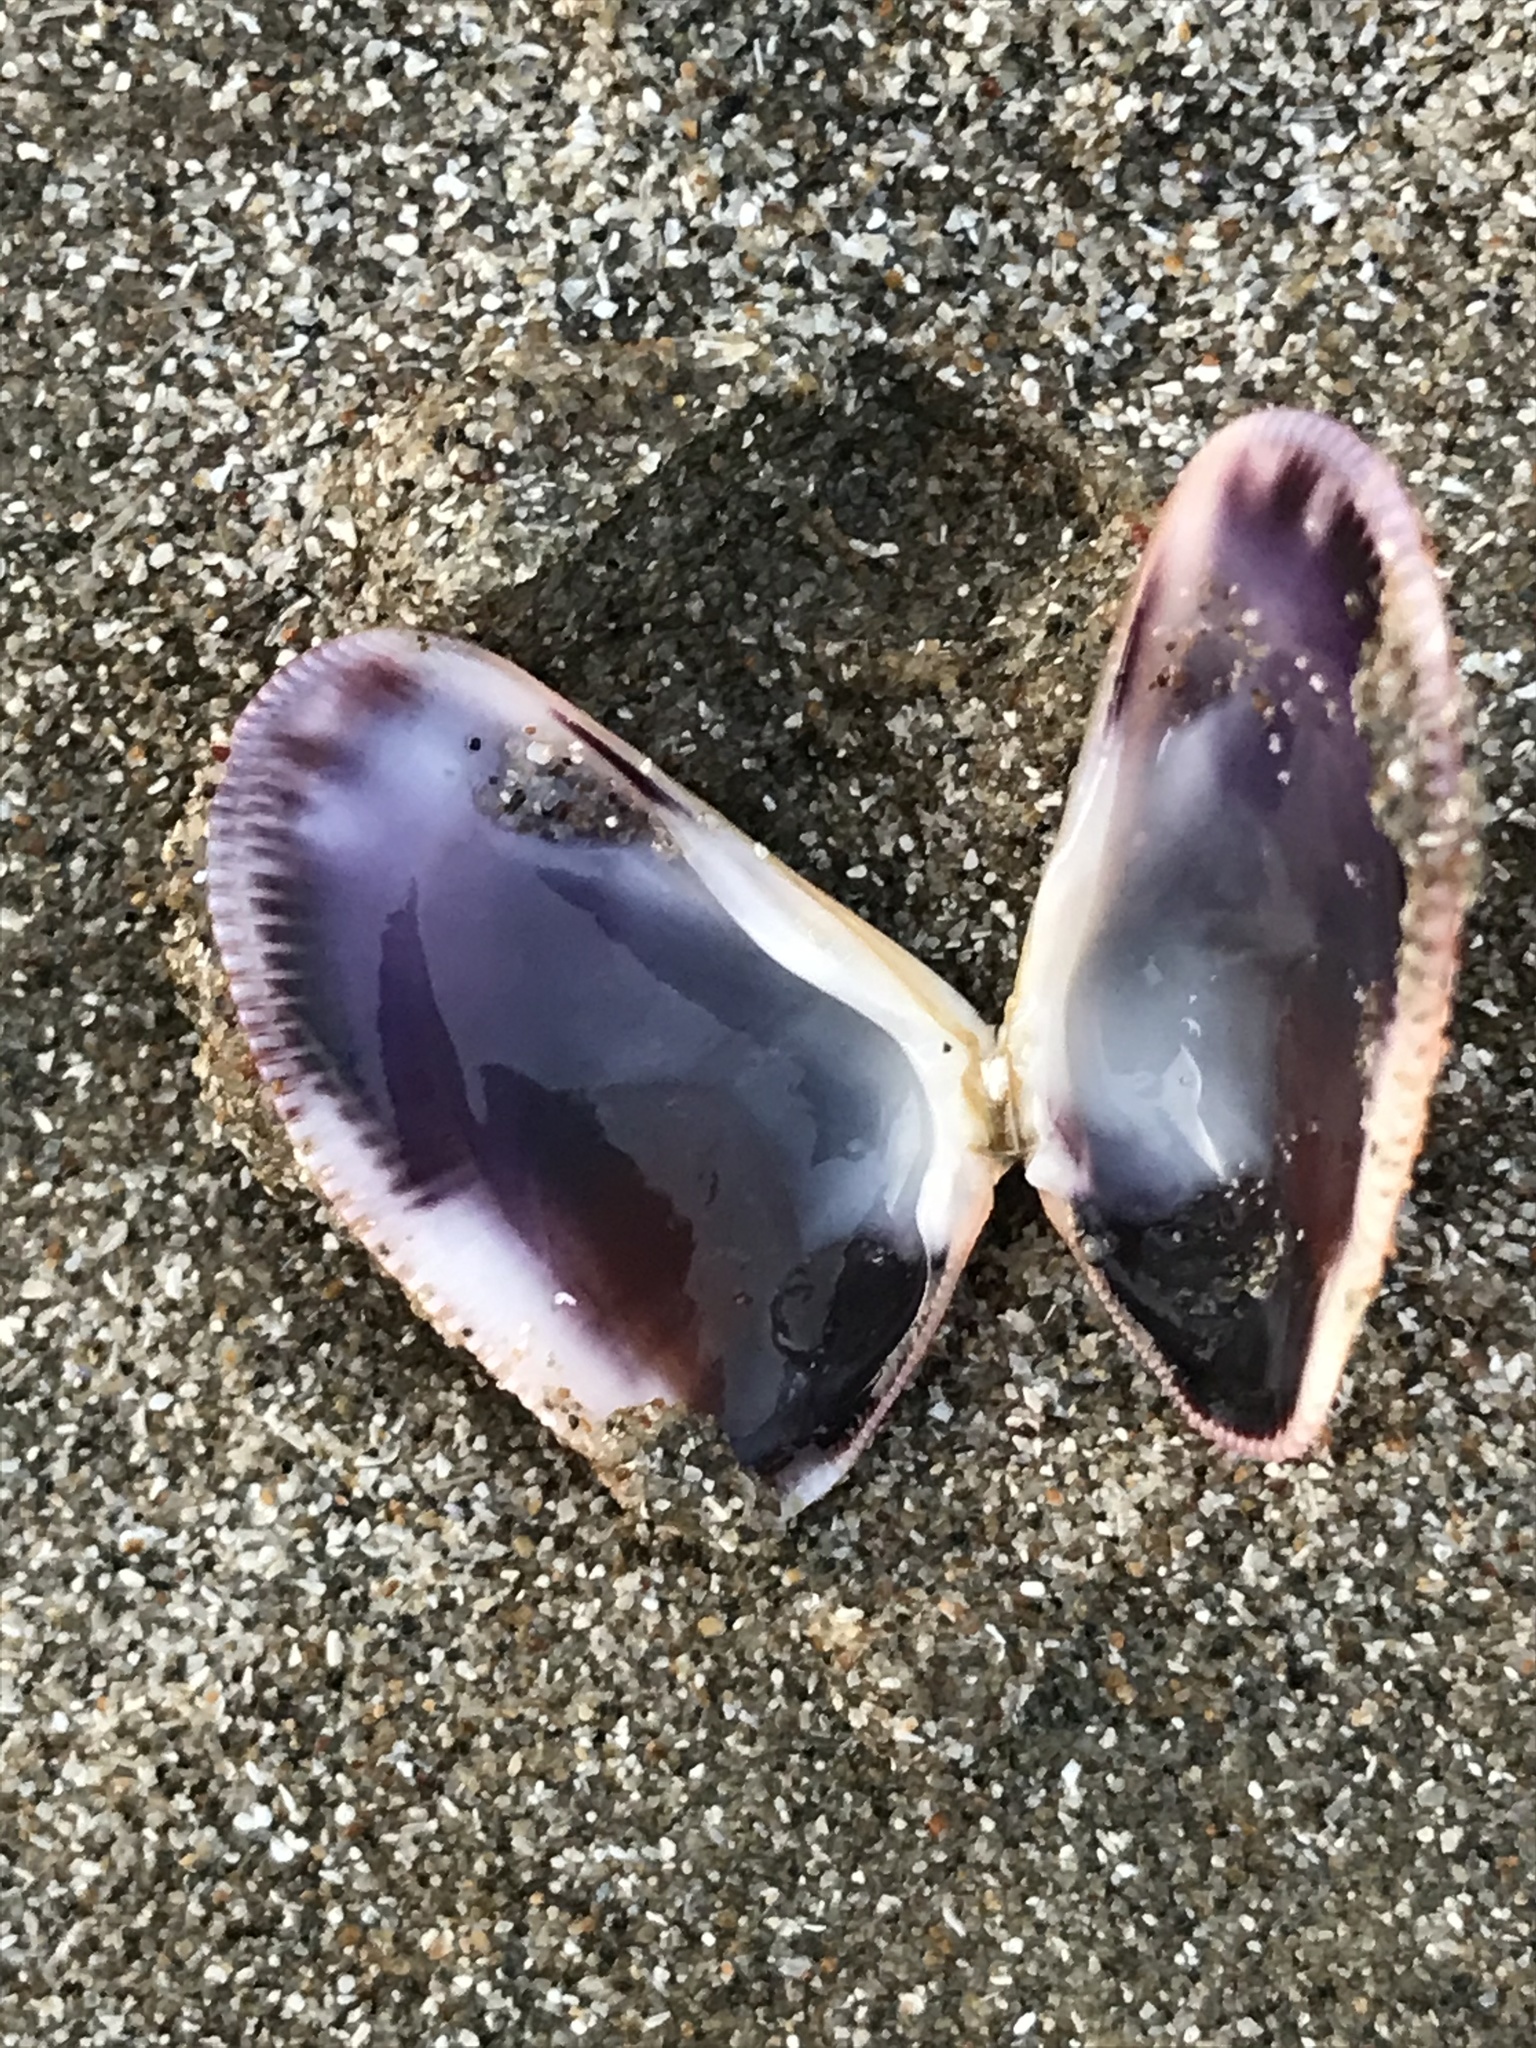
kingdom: Animalia
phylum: Mollusca
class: Bivalvia
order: Cardiida
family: Donacidae
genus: Donax
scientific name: Donax gouldii
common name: Gould beanclam
